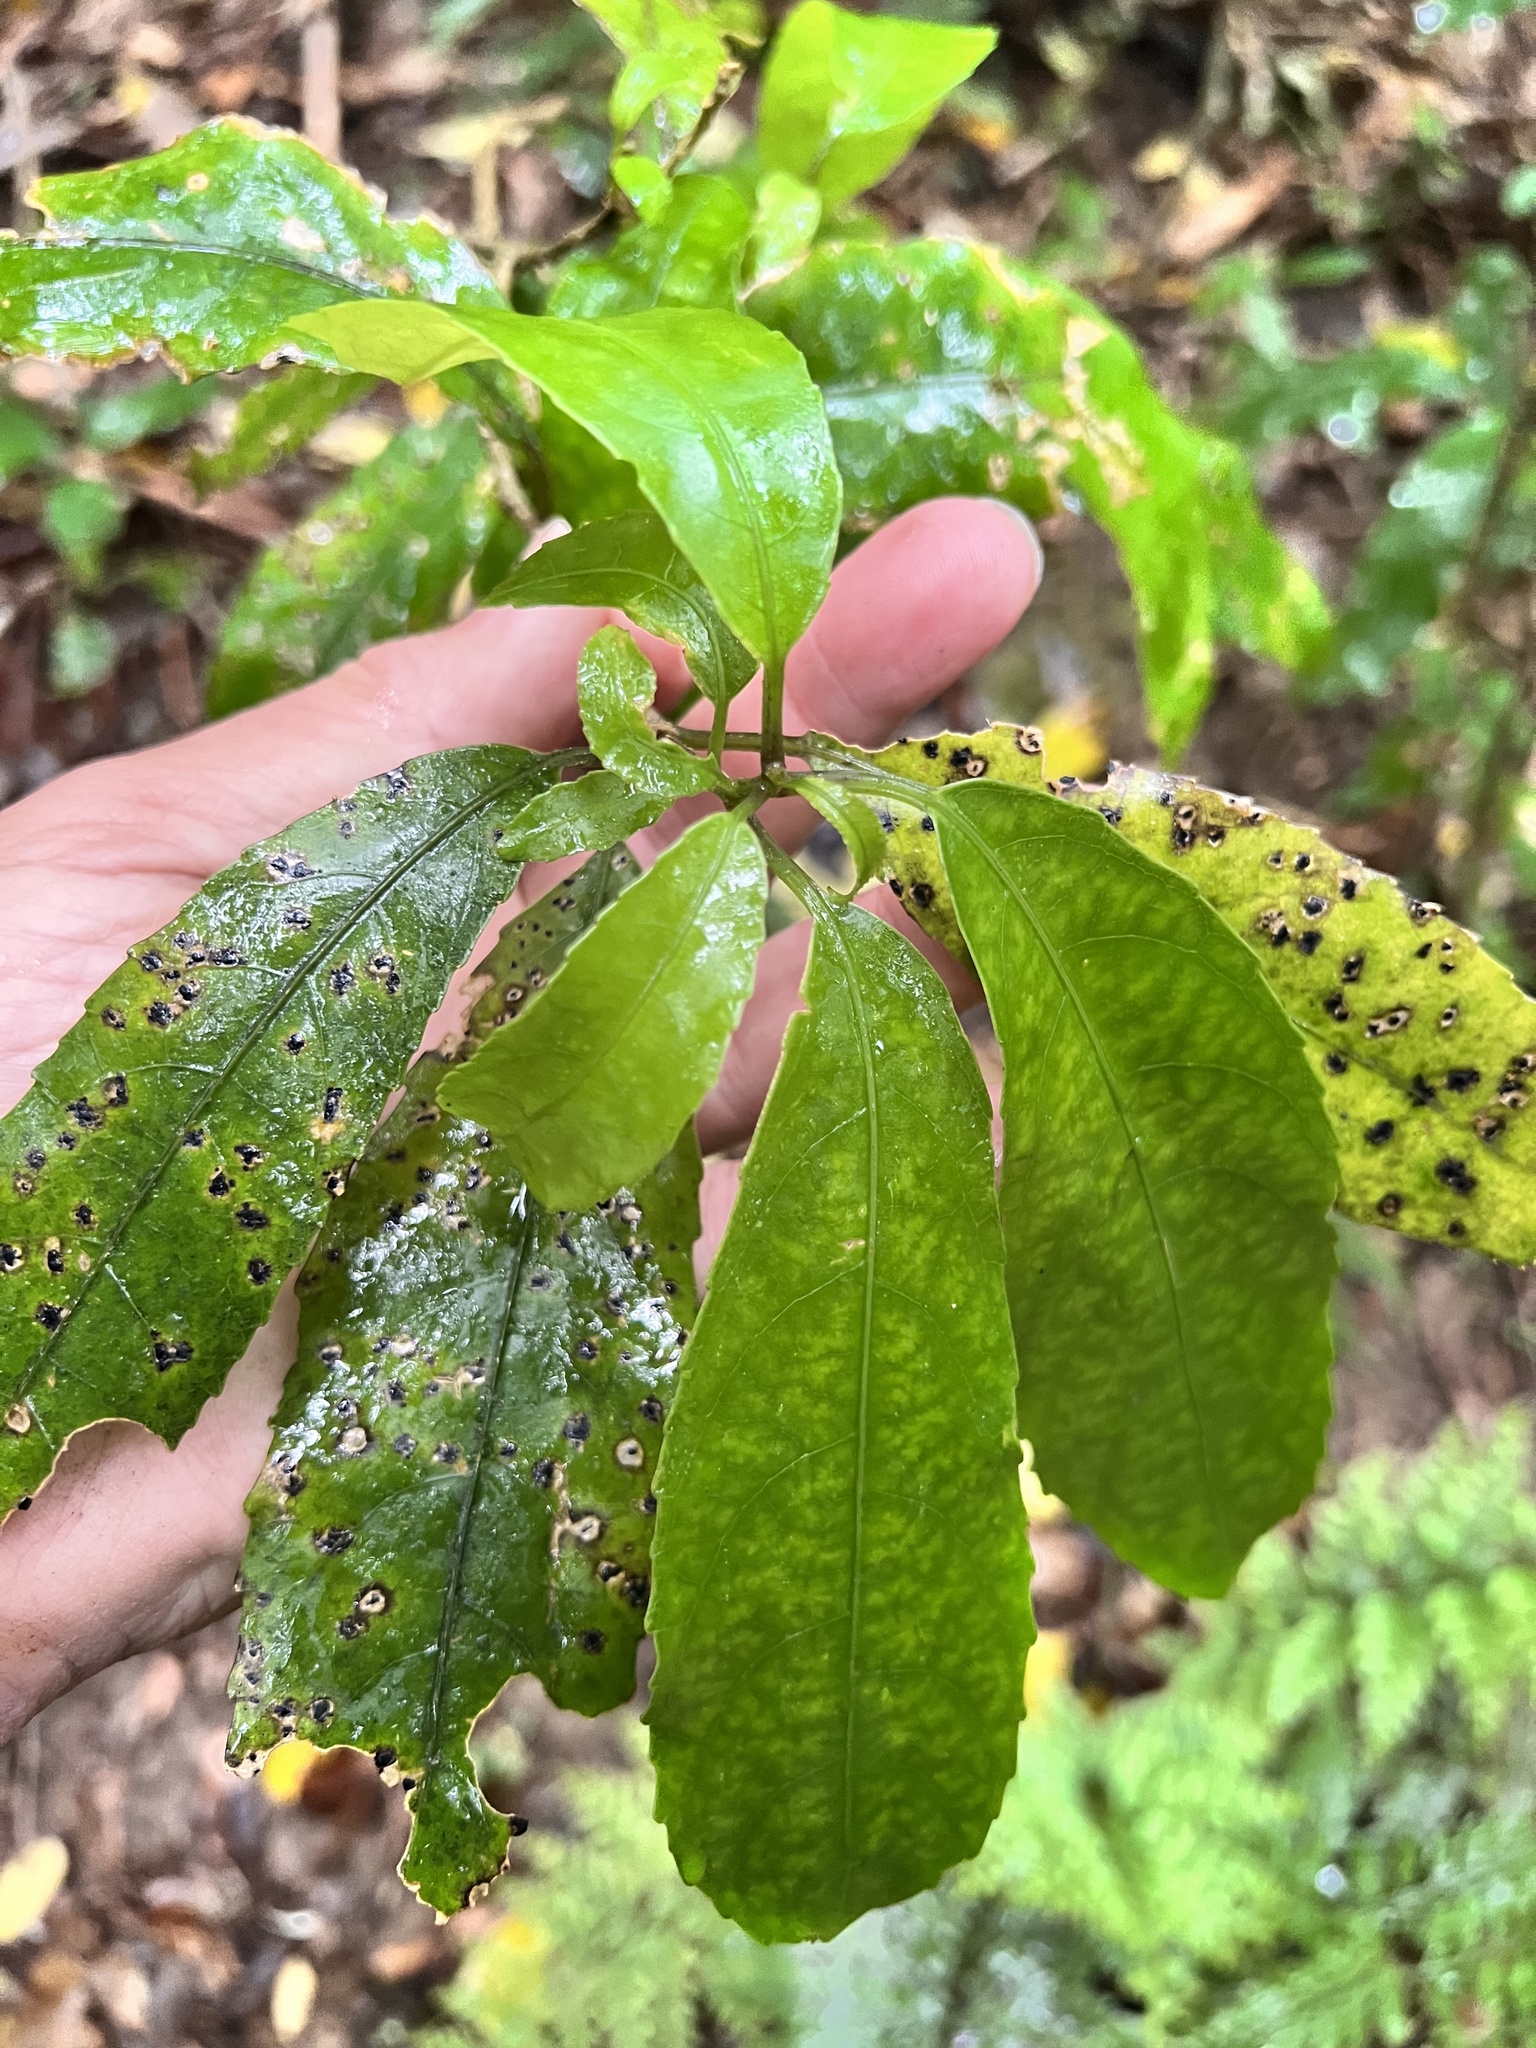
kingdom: Plantae
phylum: Tracheophyta
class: Magnoliopsida
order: Malpighiales
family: Violaceae
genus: Melicytus
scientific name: Melicytus ramiflorus
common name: Mahoe
